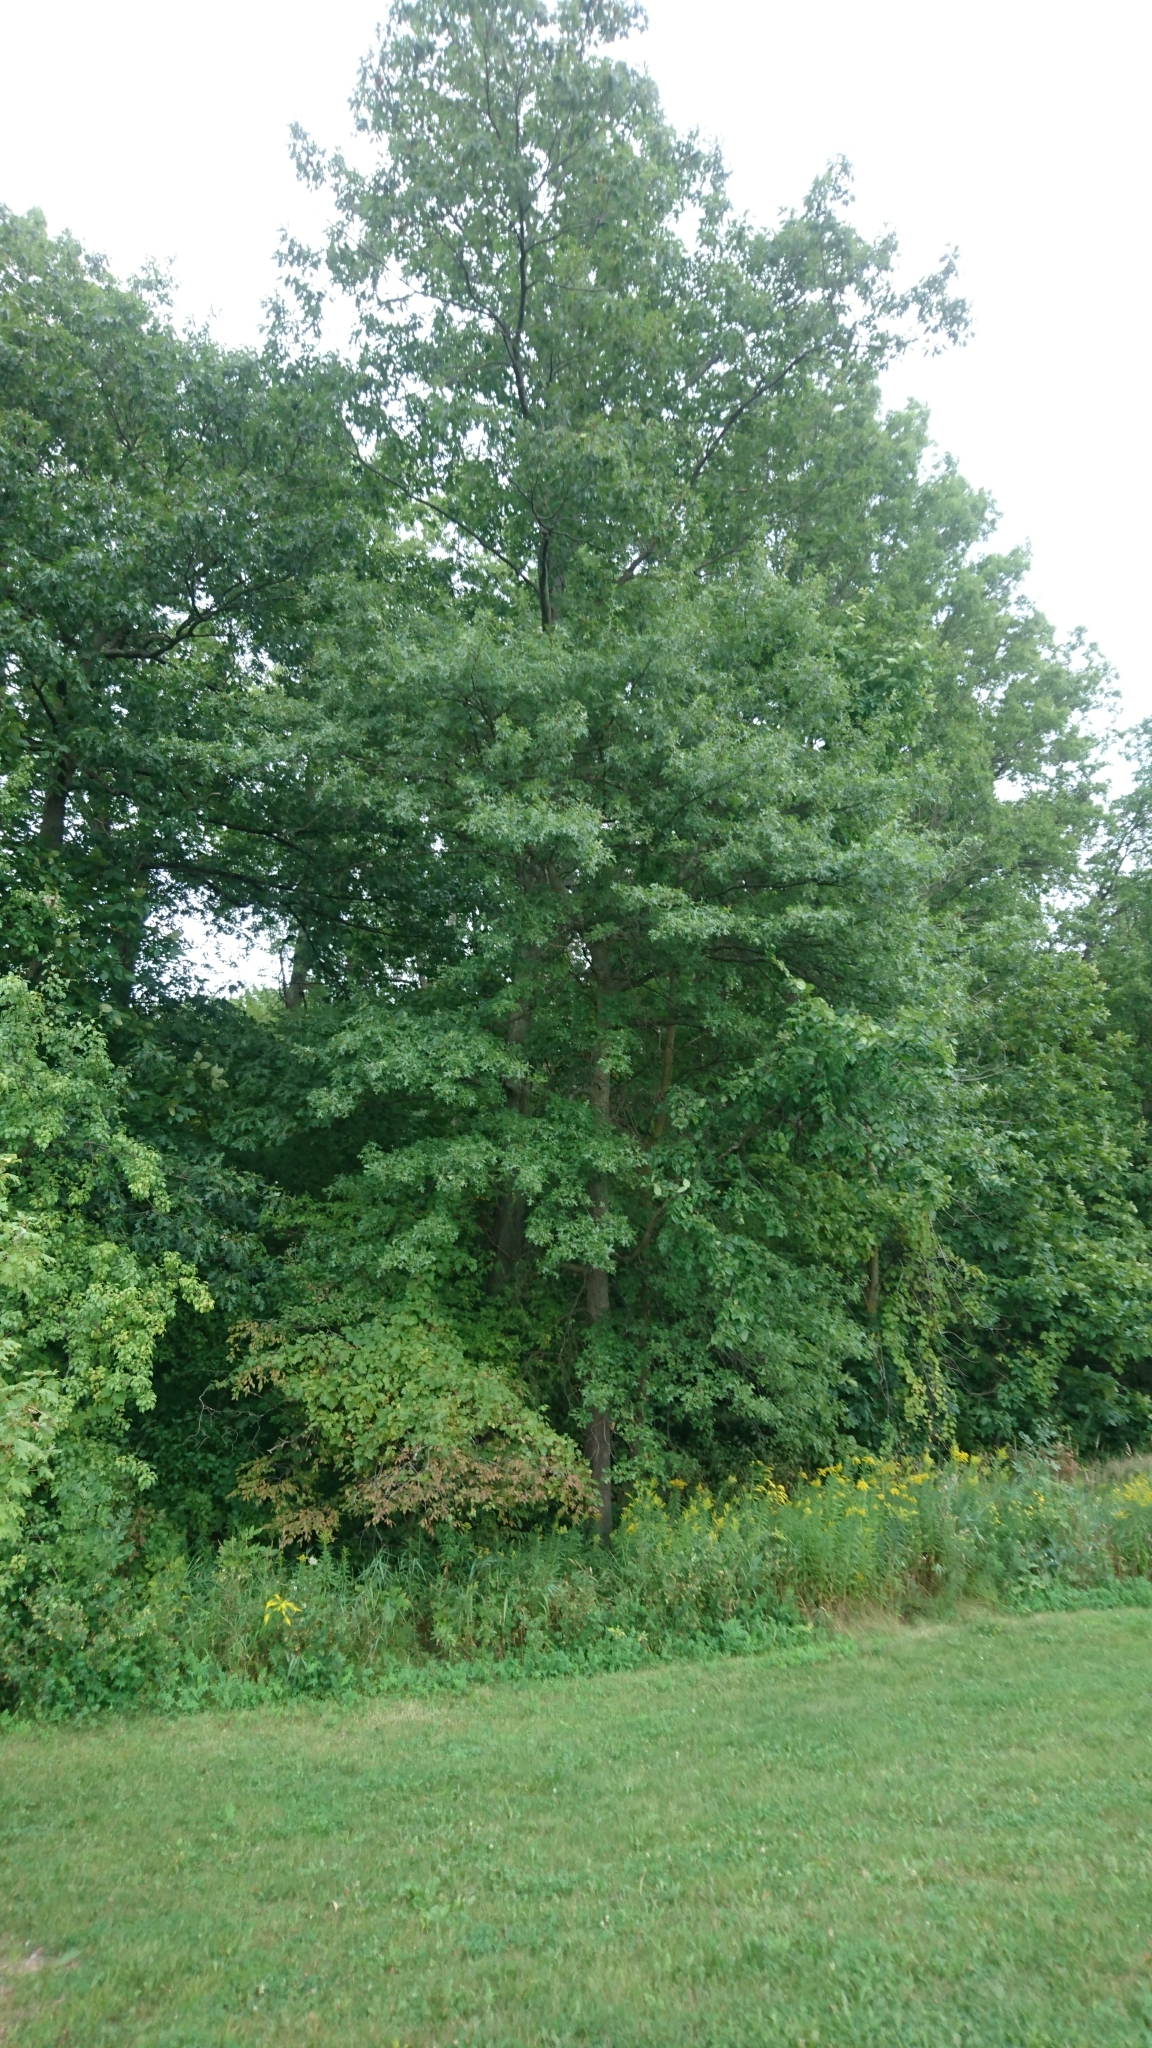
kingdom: Plantae
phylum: Tracheophyta
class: Magnoliopsida
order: Fagales
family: Fagaceae
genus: Quercus
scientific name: Quercus palustris
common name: Pin oak
